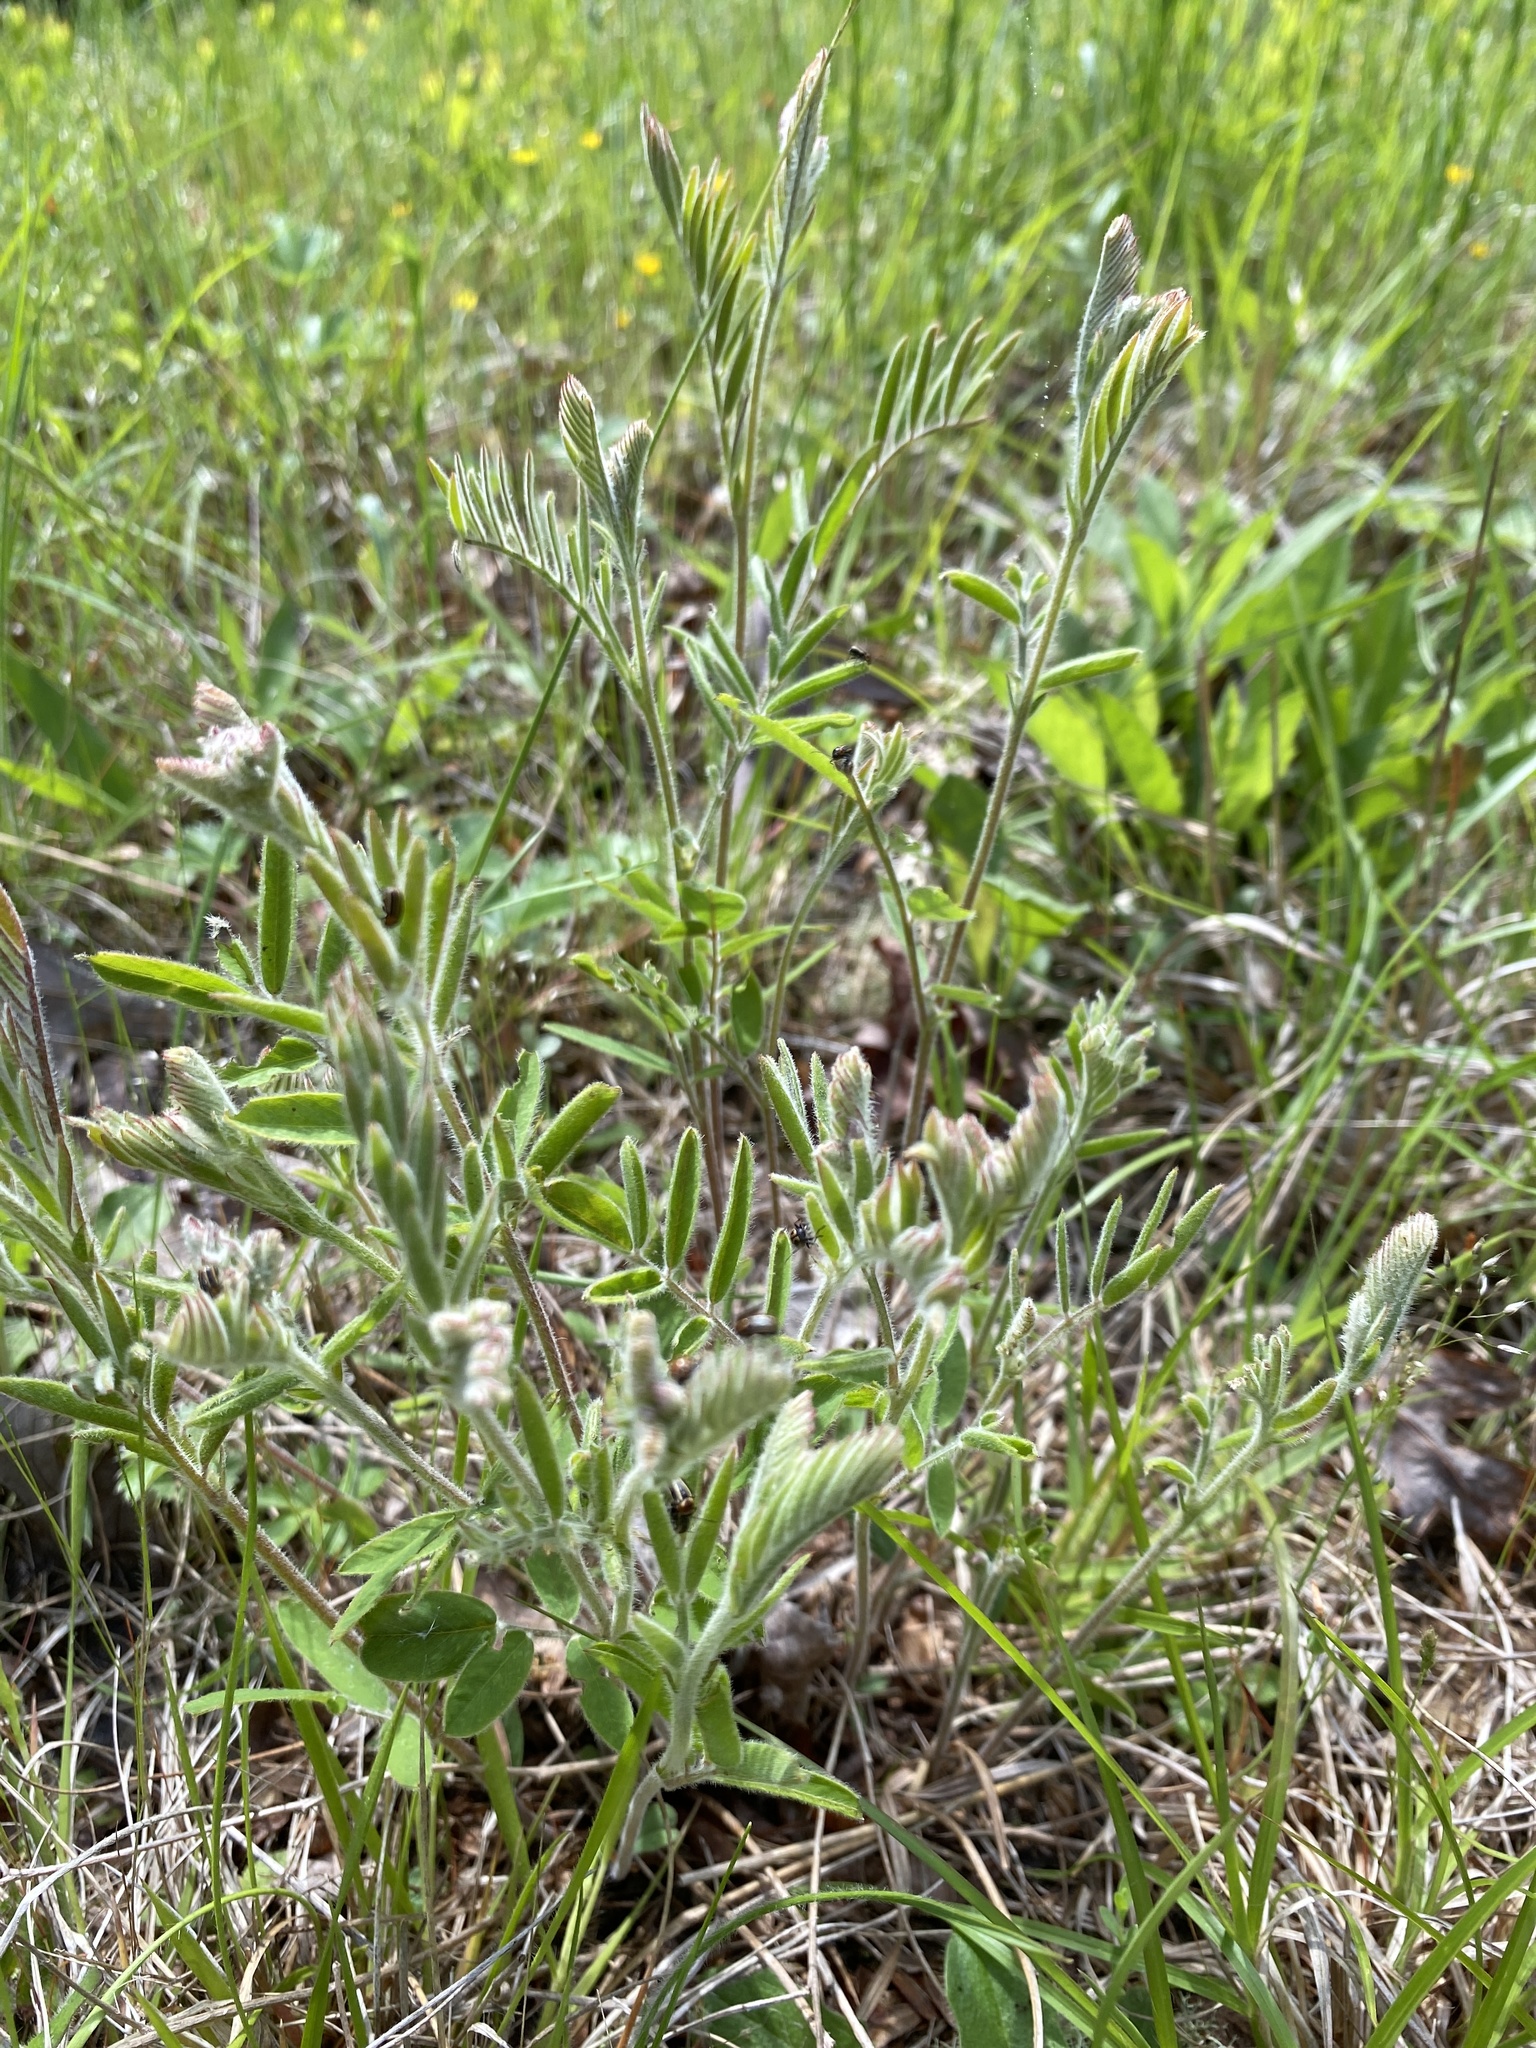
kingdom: Plantae
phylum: Tracheophyta
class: Magnoliopsida
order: Fabales
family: Fabaceae
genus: Tephrosia
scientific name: Tephrosia virginiana
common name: Rabbit-pea
